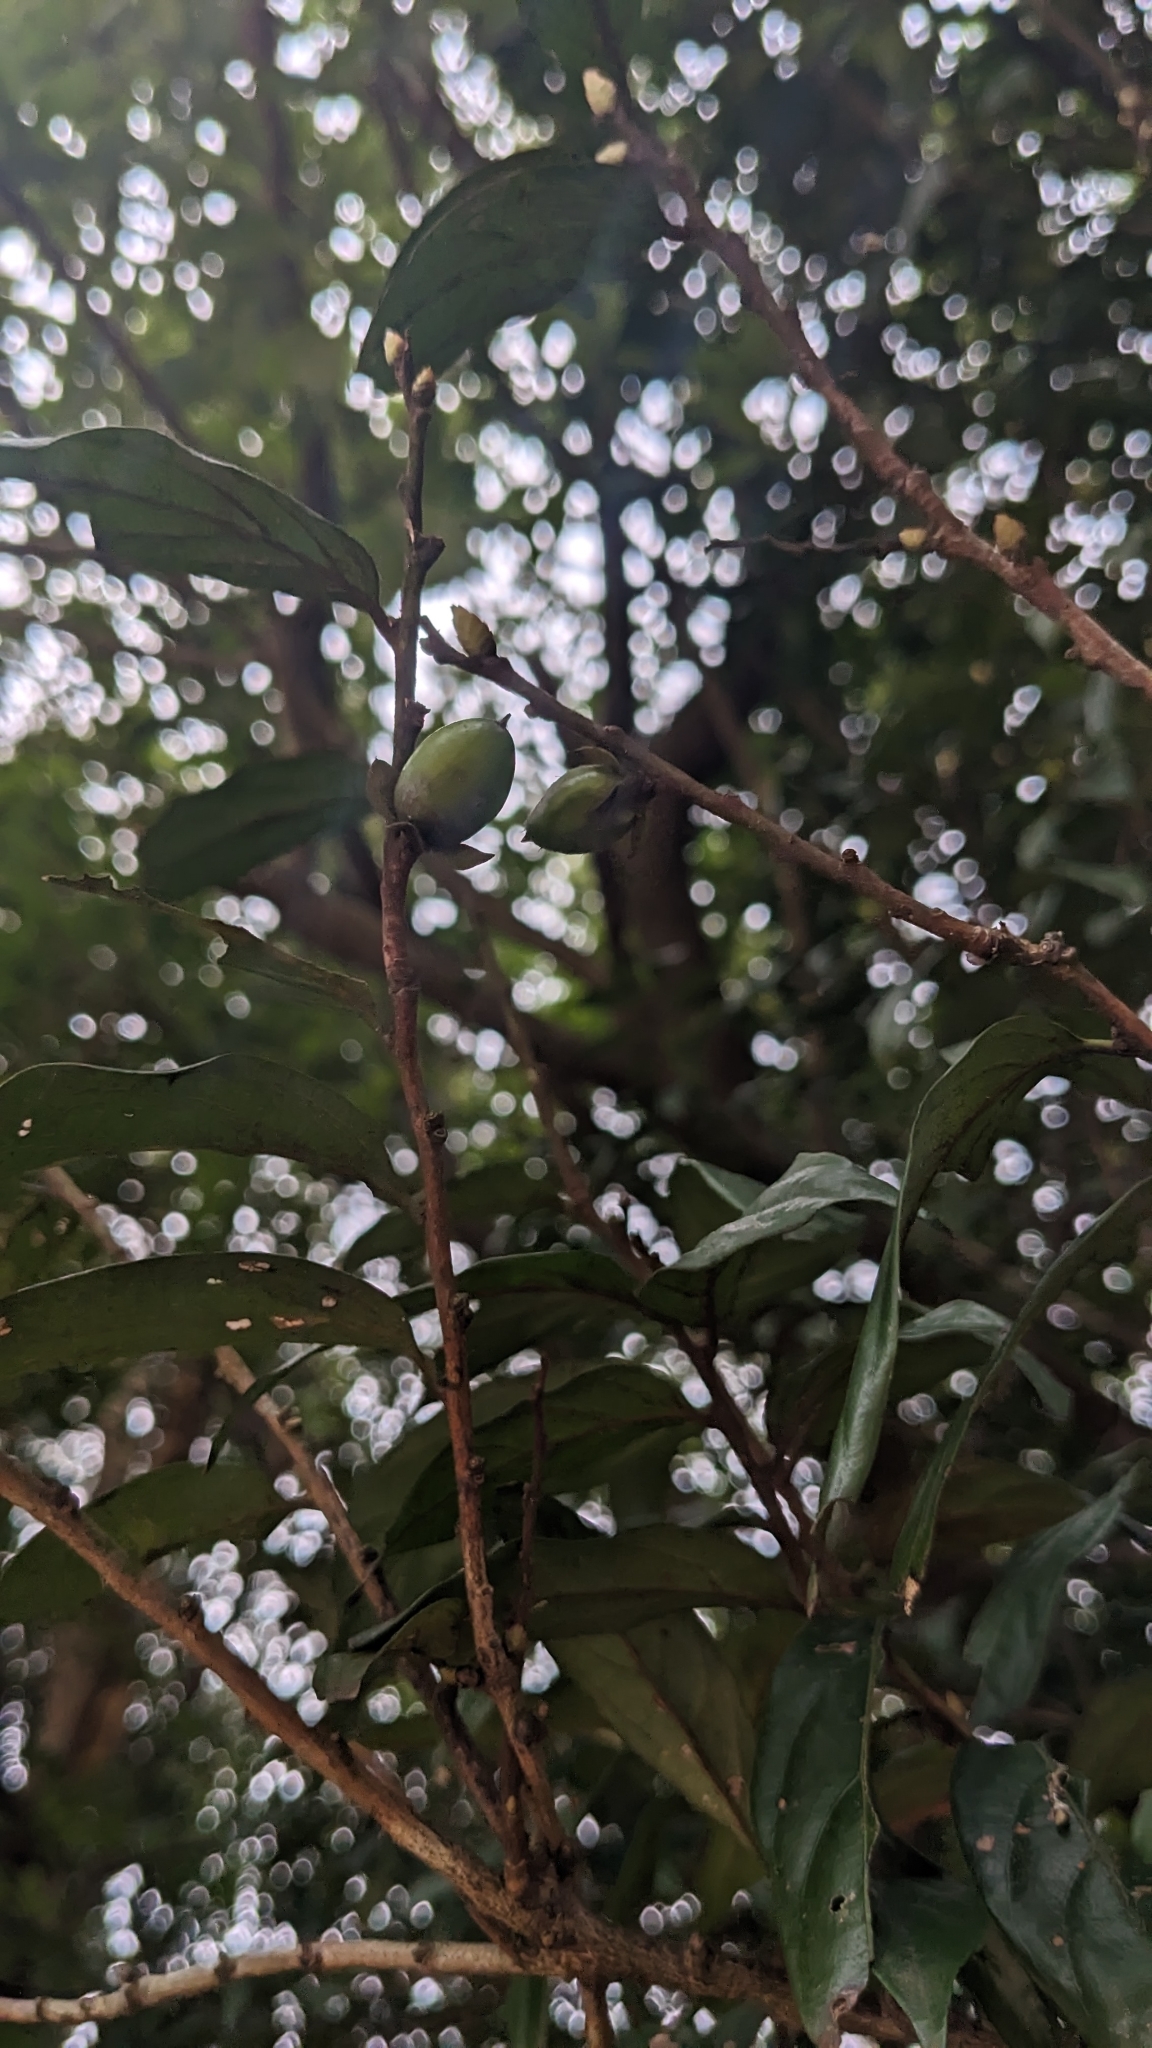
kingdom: Plantae
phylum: Tracheophyta
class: Magnoliopsida
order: Ericales
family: Ebenaceae
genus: Diospyros
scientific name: Diospyros eriantha
